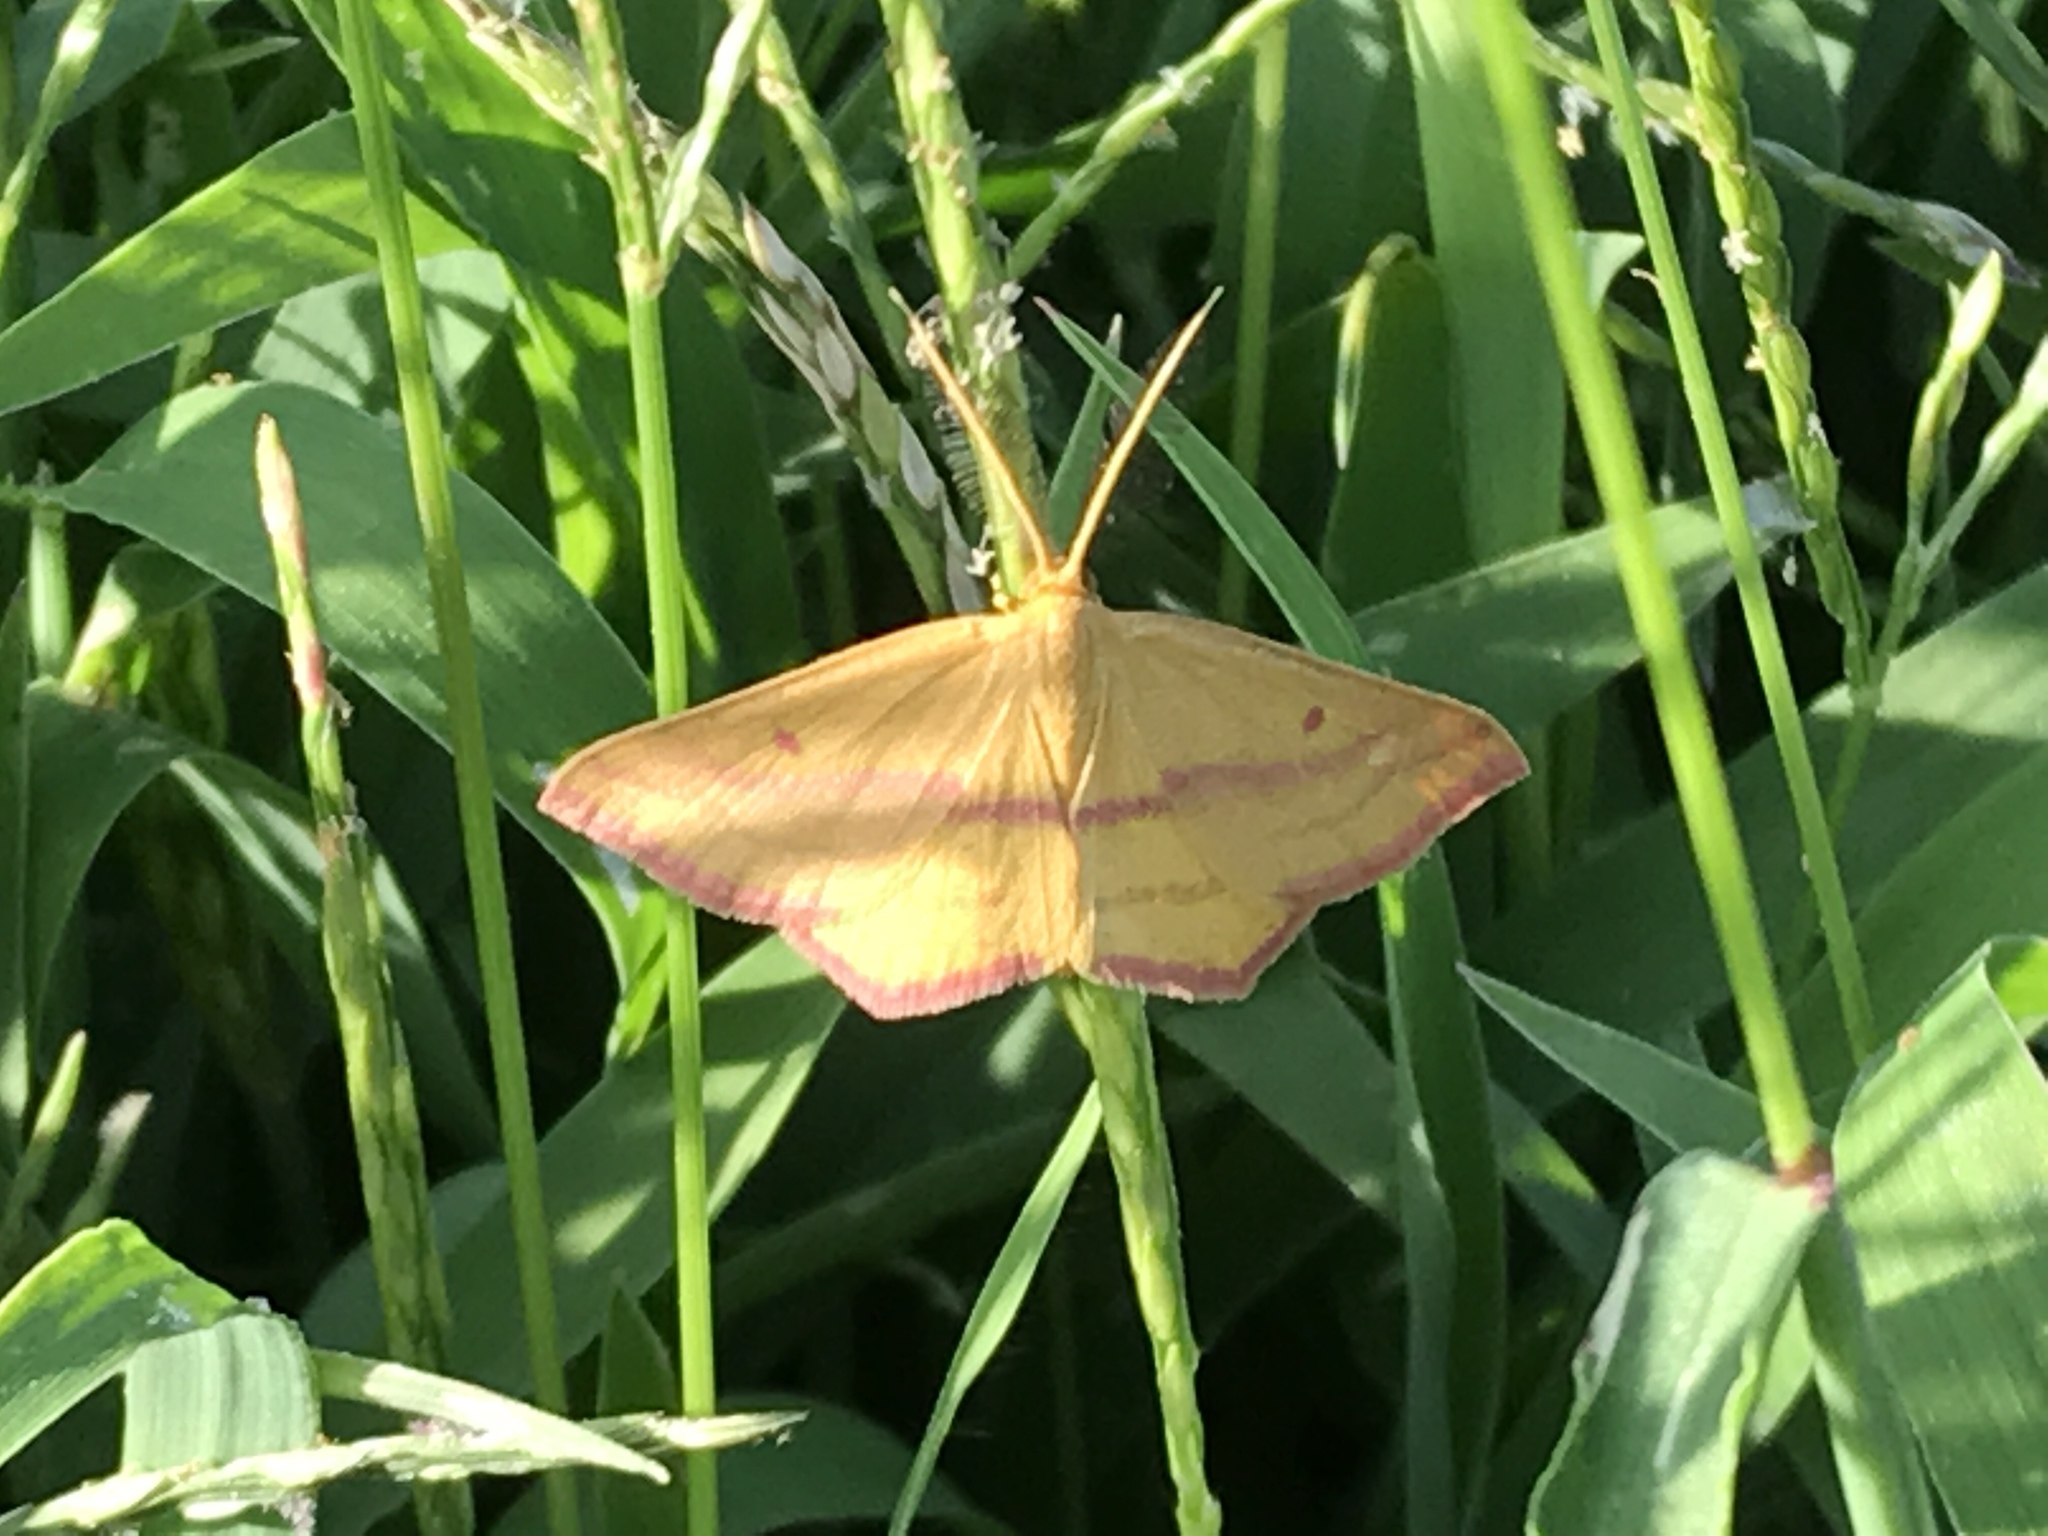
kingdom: Animalia
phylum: Arthropoda
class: Insecta
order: Lepidoptera
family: Geometridae
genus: Haematopis
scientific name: Haematopis grataria
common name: Chickweed geometer
